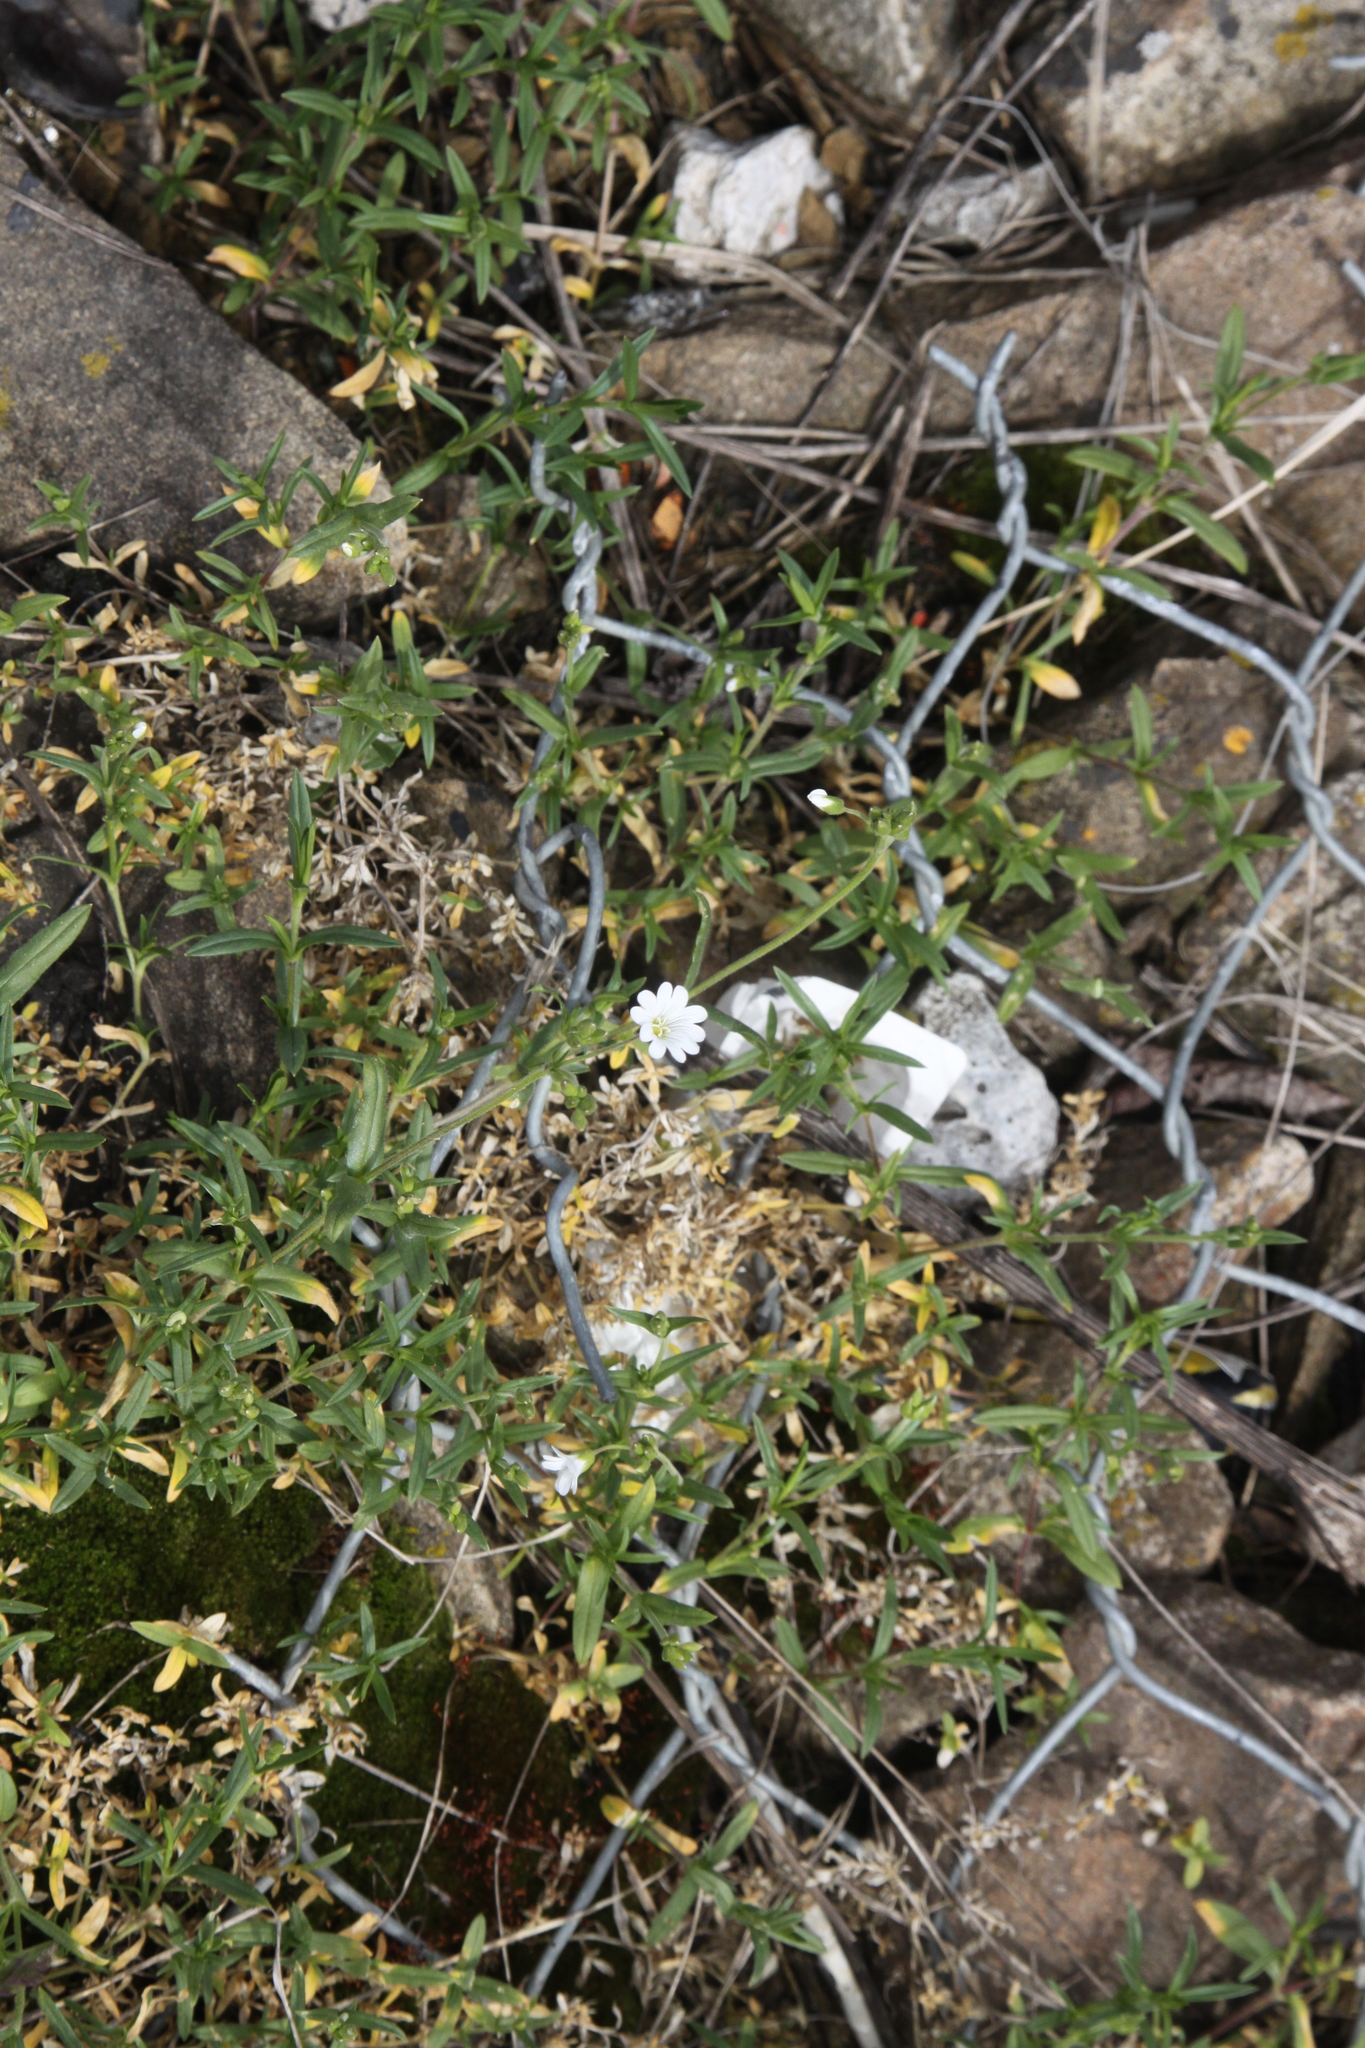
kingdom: Plantae
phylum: Tracheophyta
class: Magnoliopsida
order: Caryophyllales
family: Caryophyllaceae
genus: Cerastium
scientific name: Cerastium arvense
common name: Field mouse-ear
